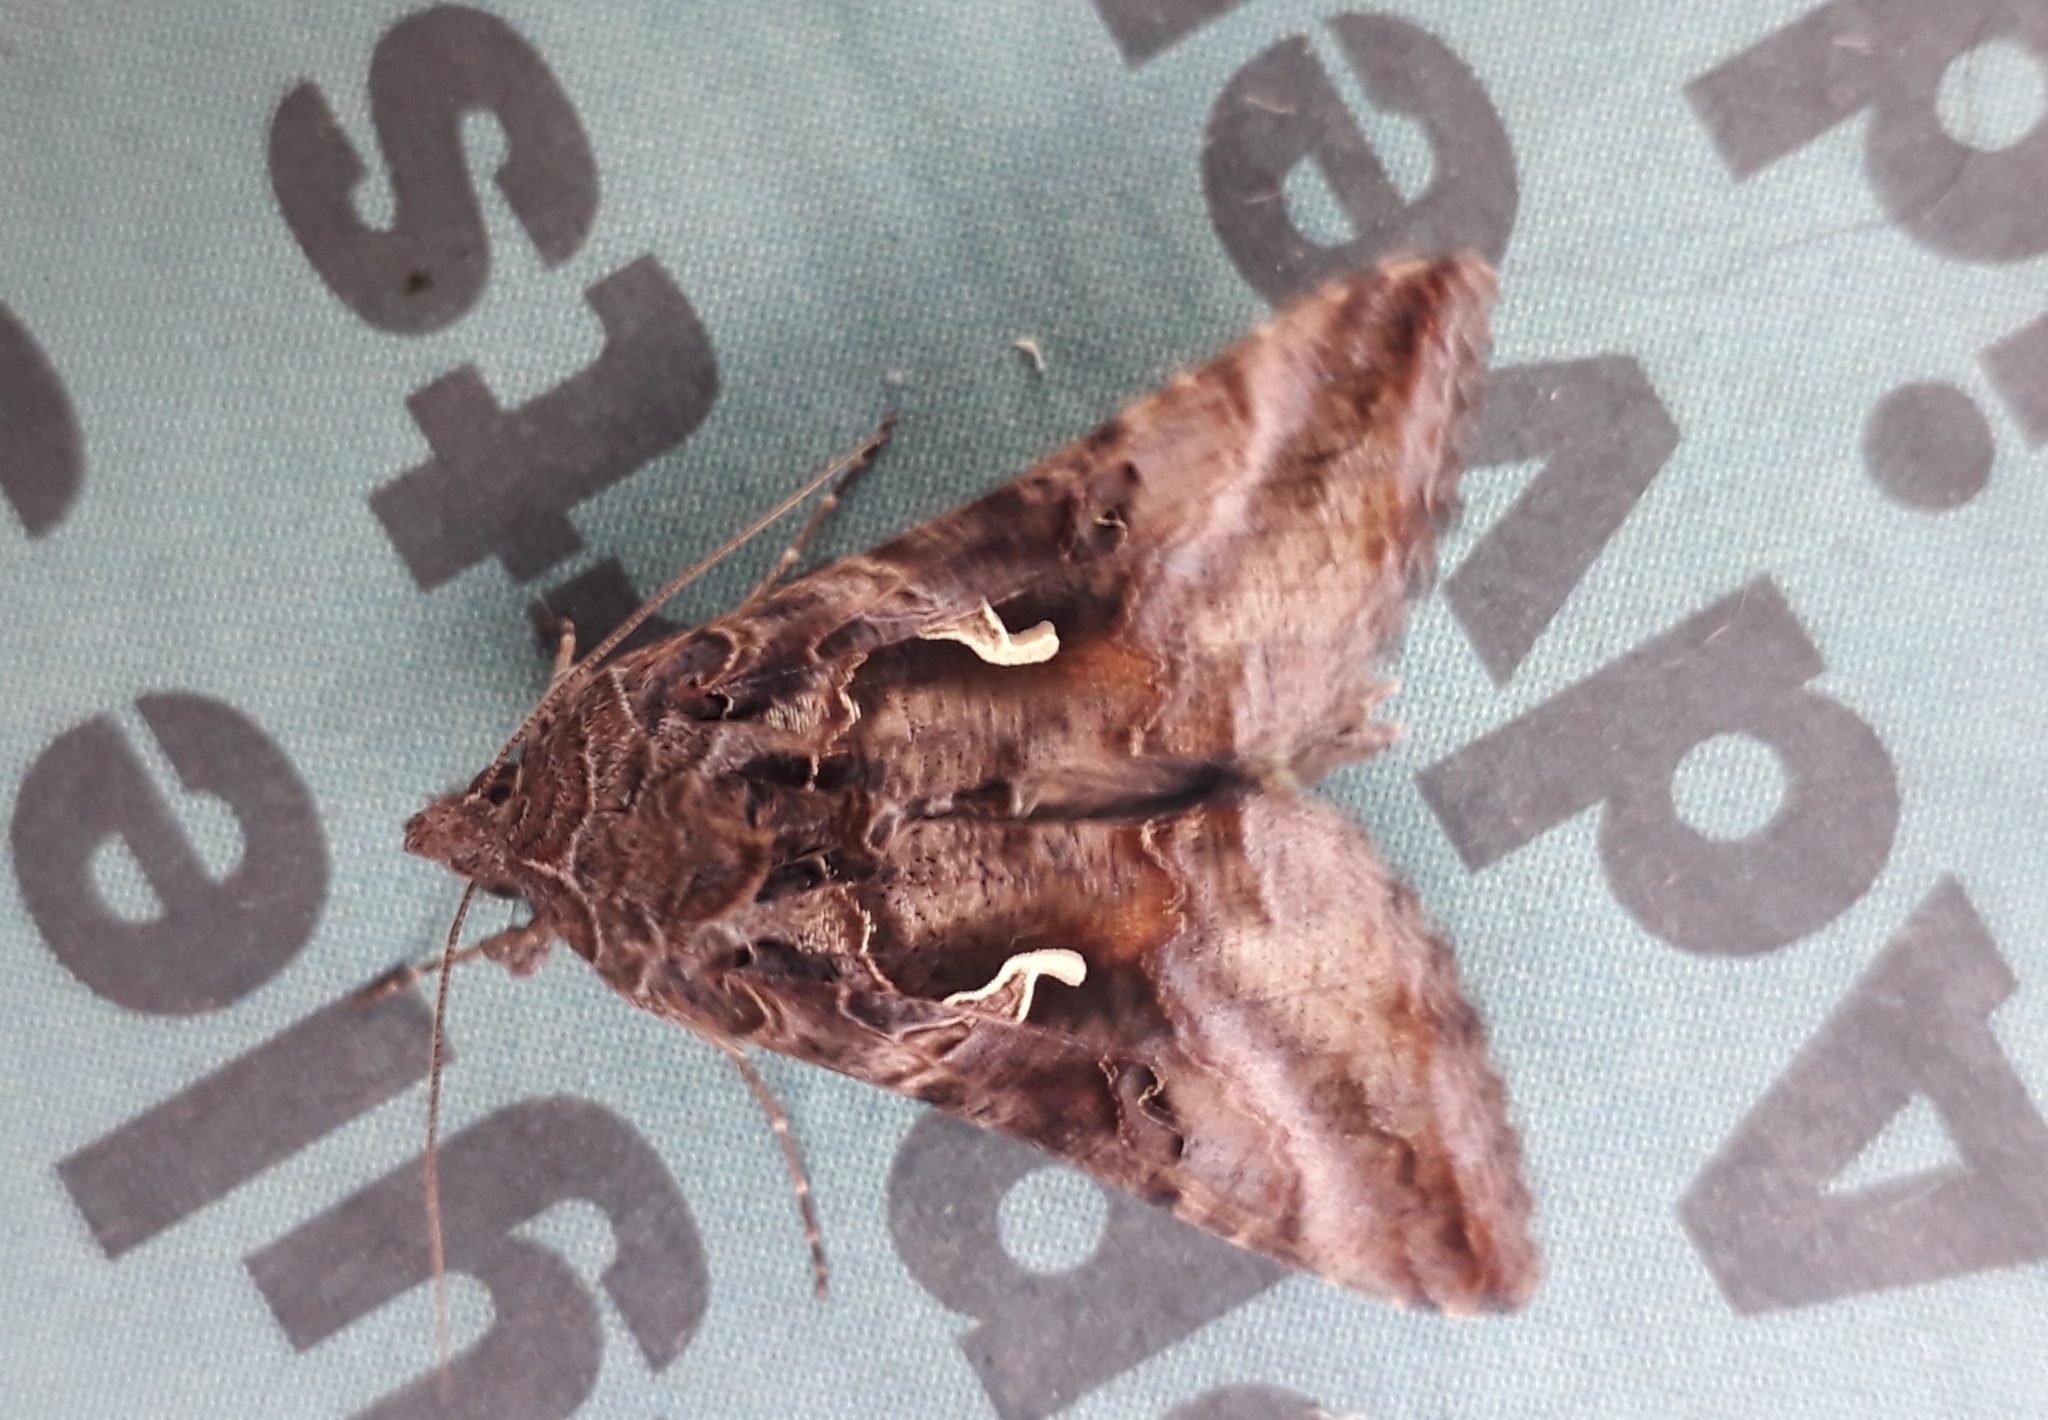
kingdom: Animalia
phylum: Arthropoda
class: Insecta
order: Lepidoptera
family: Noctuidae
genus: Autographa
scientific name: Autographa gamma
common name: Silver y
